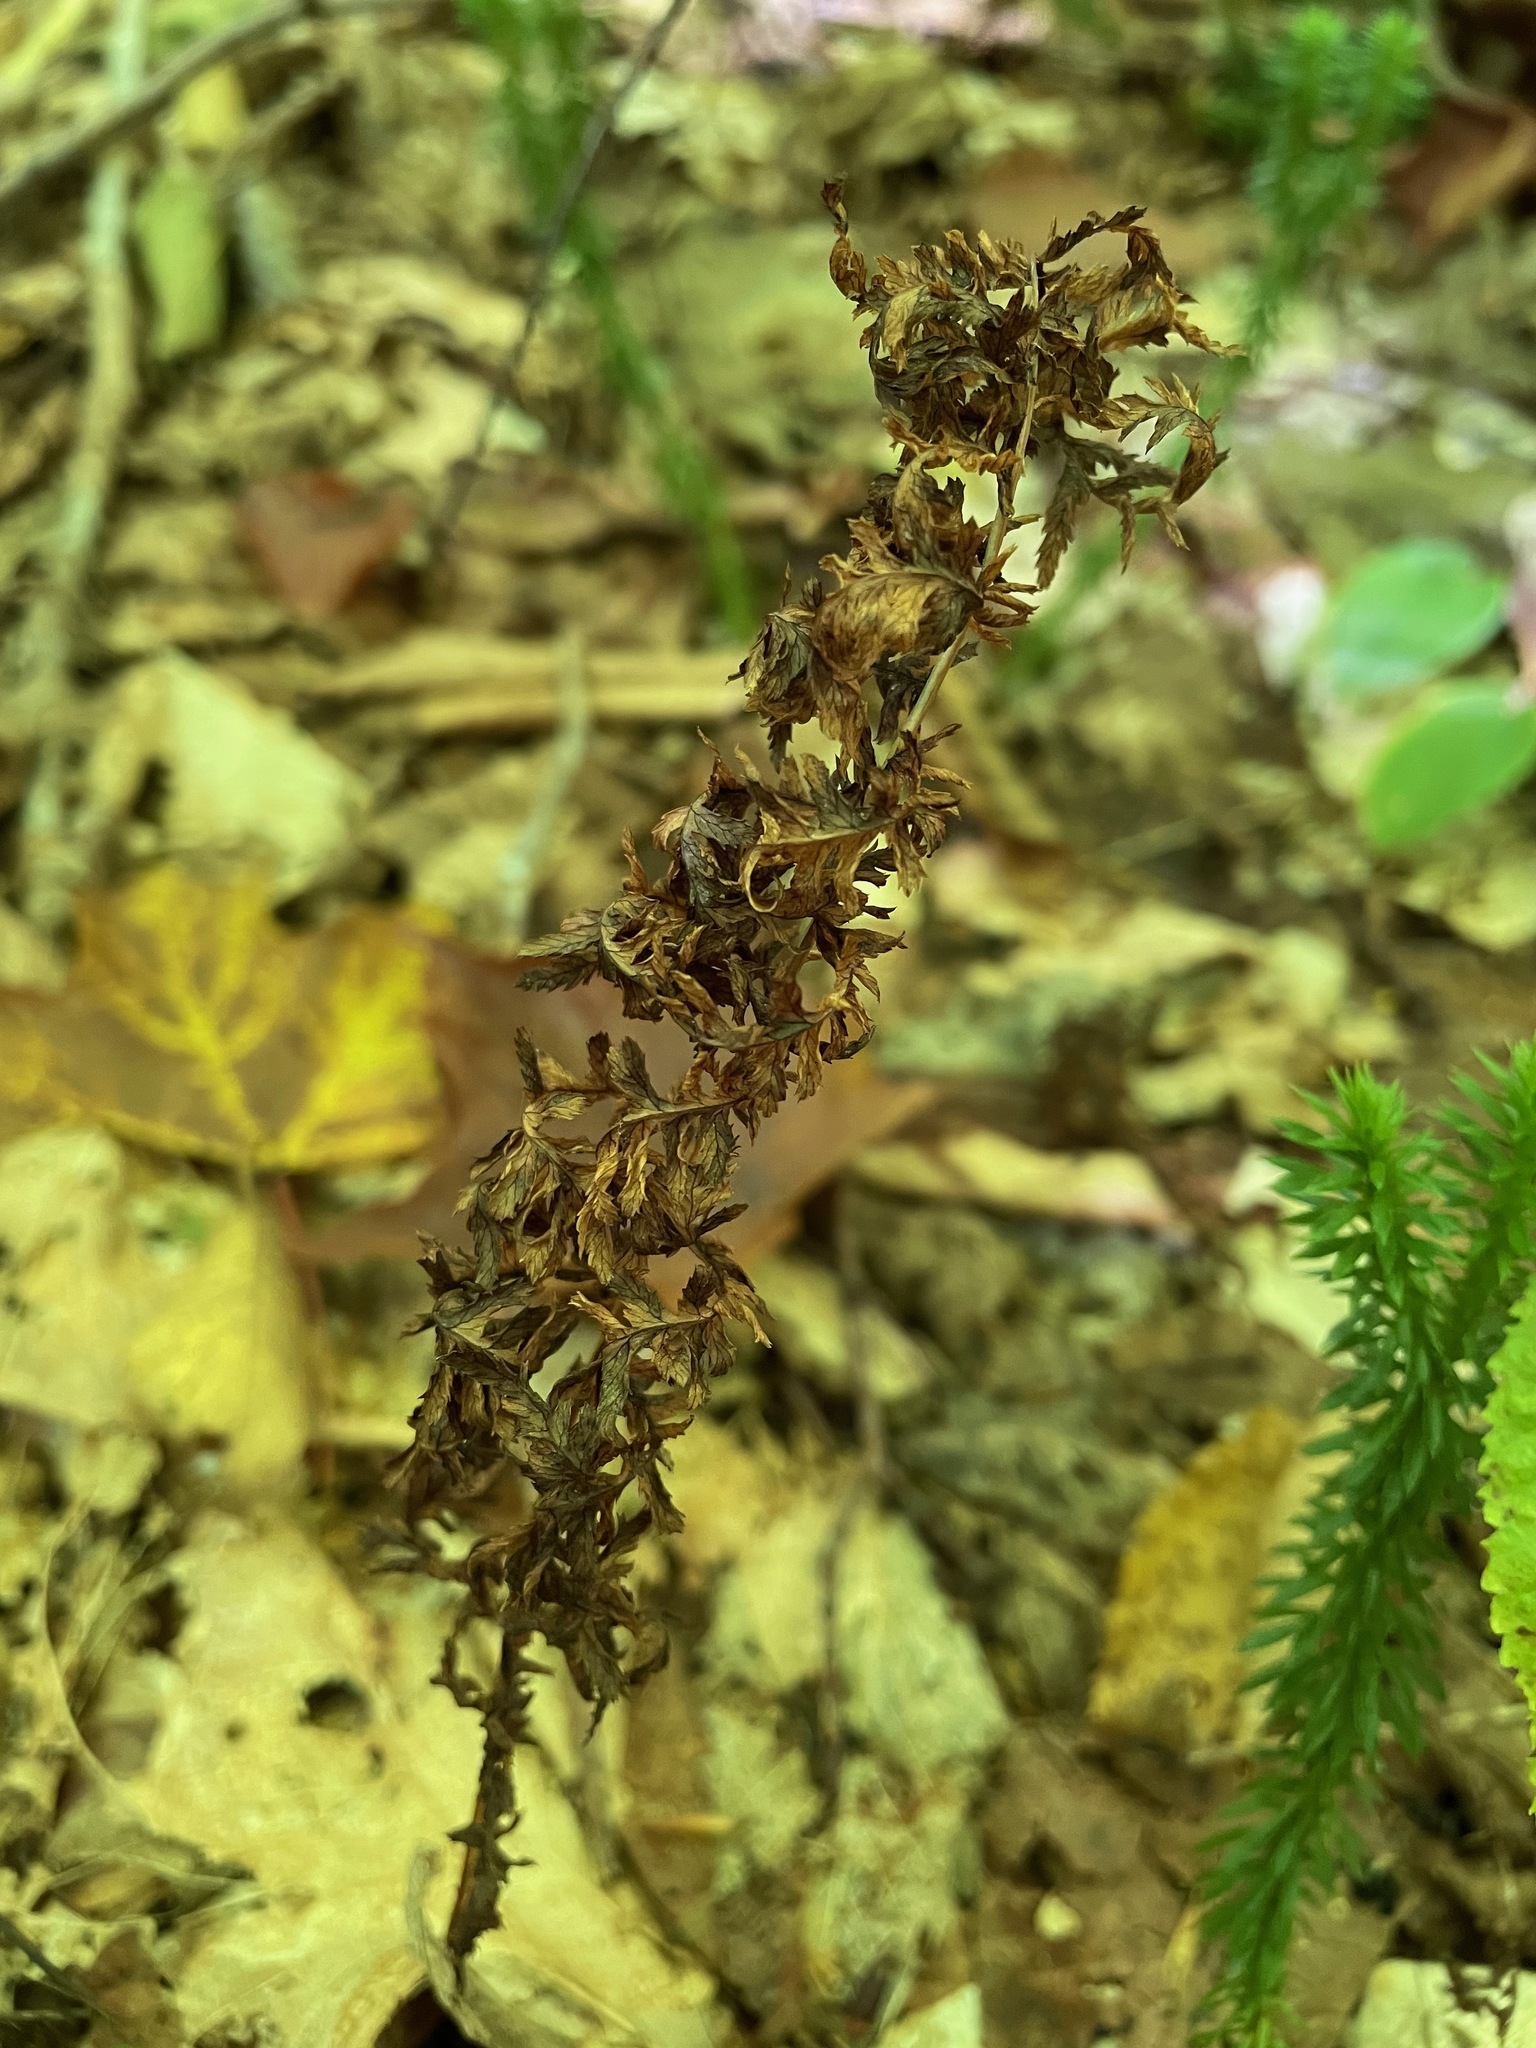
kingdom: Plantae
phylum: Tracheophyta
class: Polypodiopsida
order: Polypodiales
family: Athyriaceae
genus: Athyrium
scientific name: Athyrium angustum
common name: Northern lady fern
